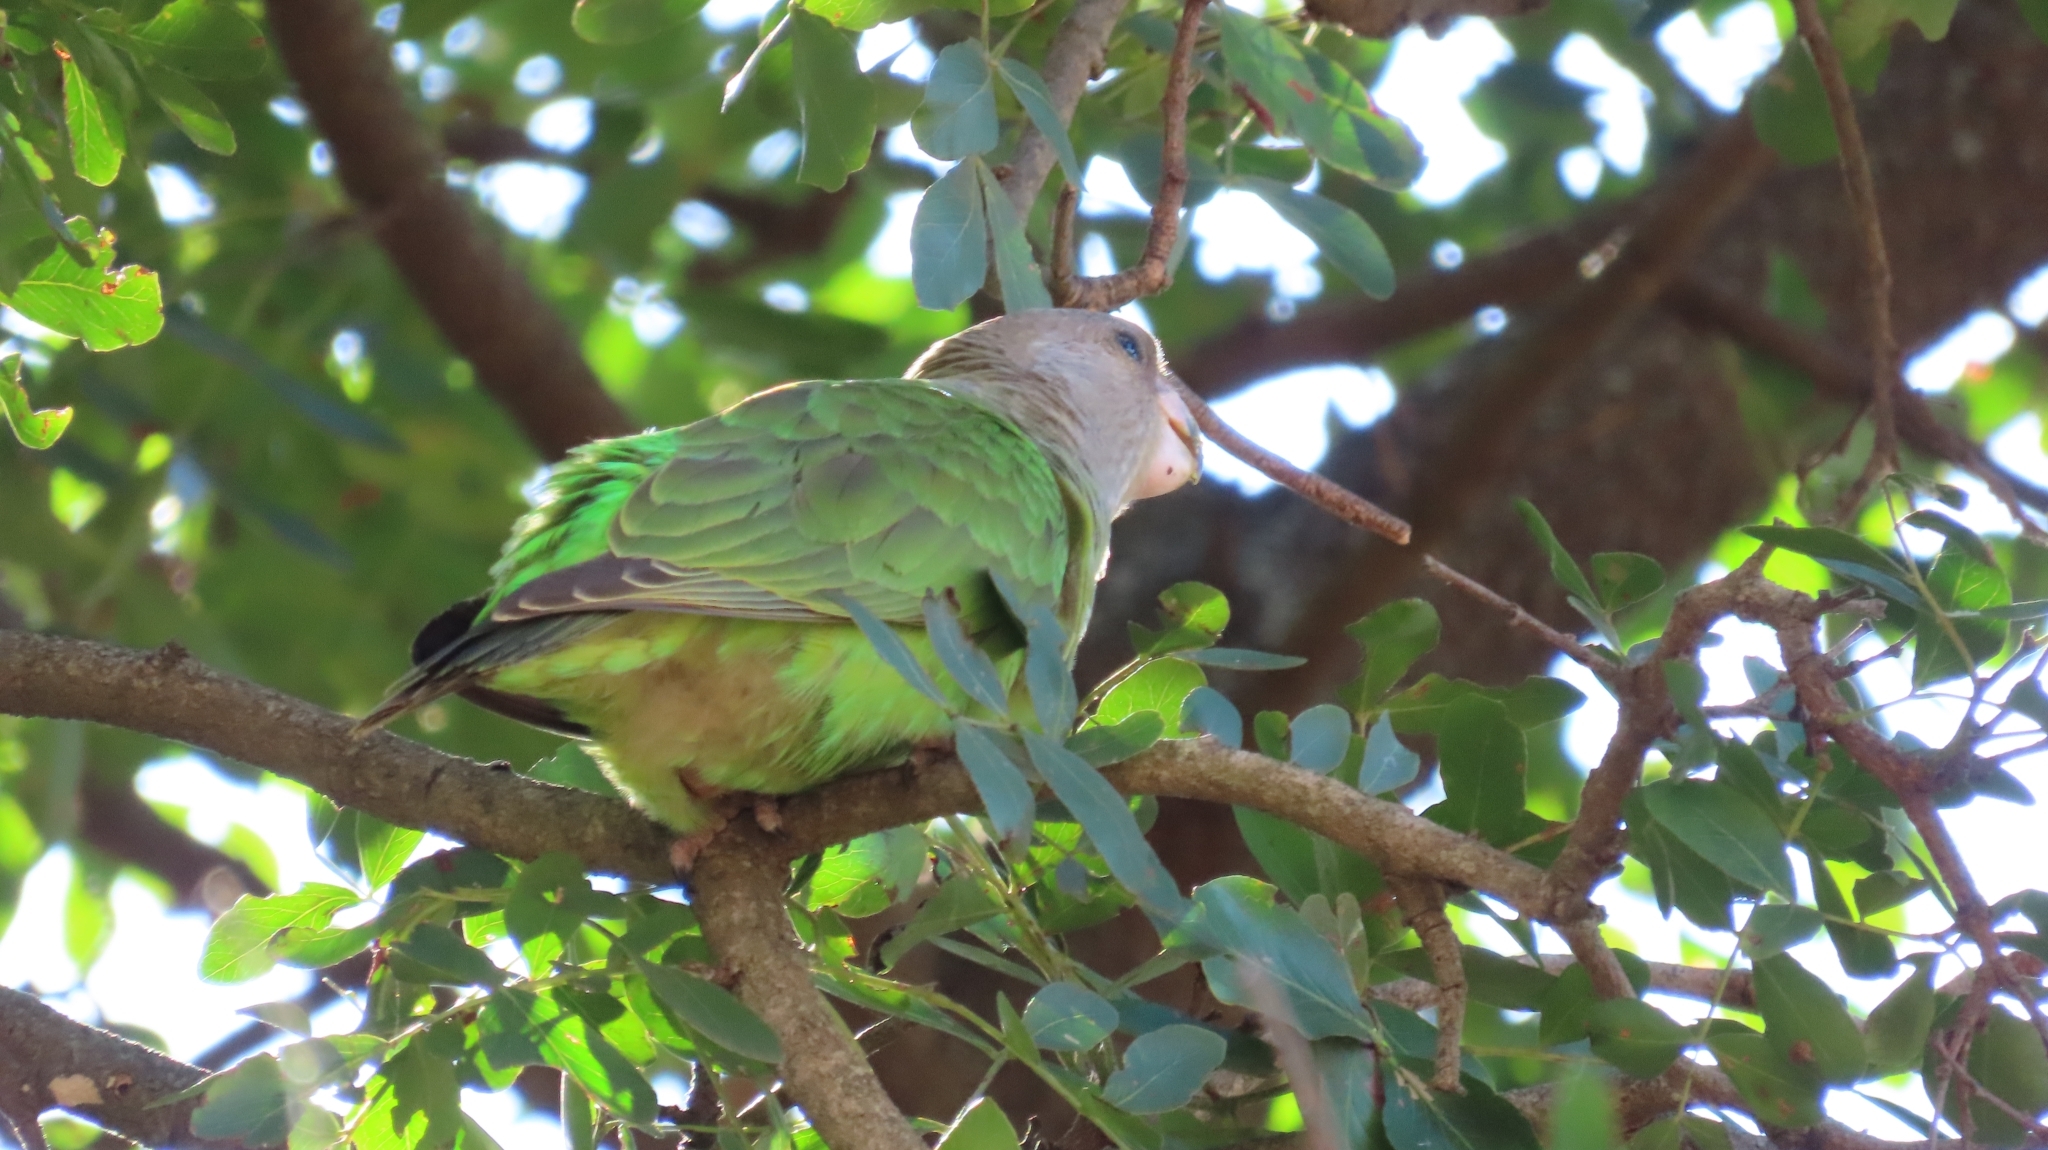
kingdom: Animalia
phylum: Chordata
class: Aves
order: Psittaciformes
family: Psittacidae
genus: Poicephalus
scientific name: Poicephalus cryptoxanthus
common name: Brown-headed parrot
